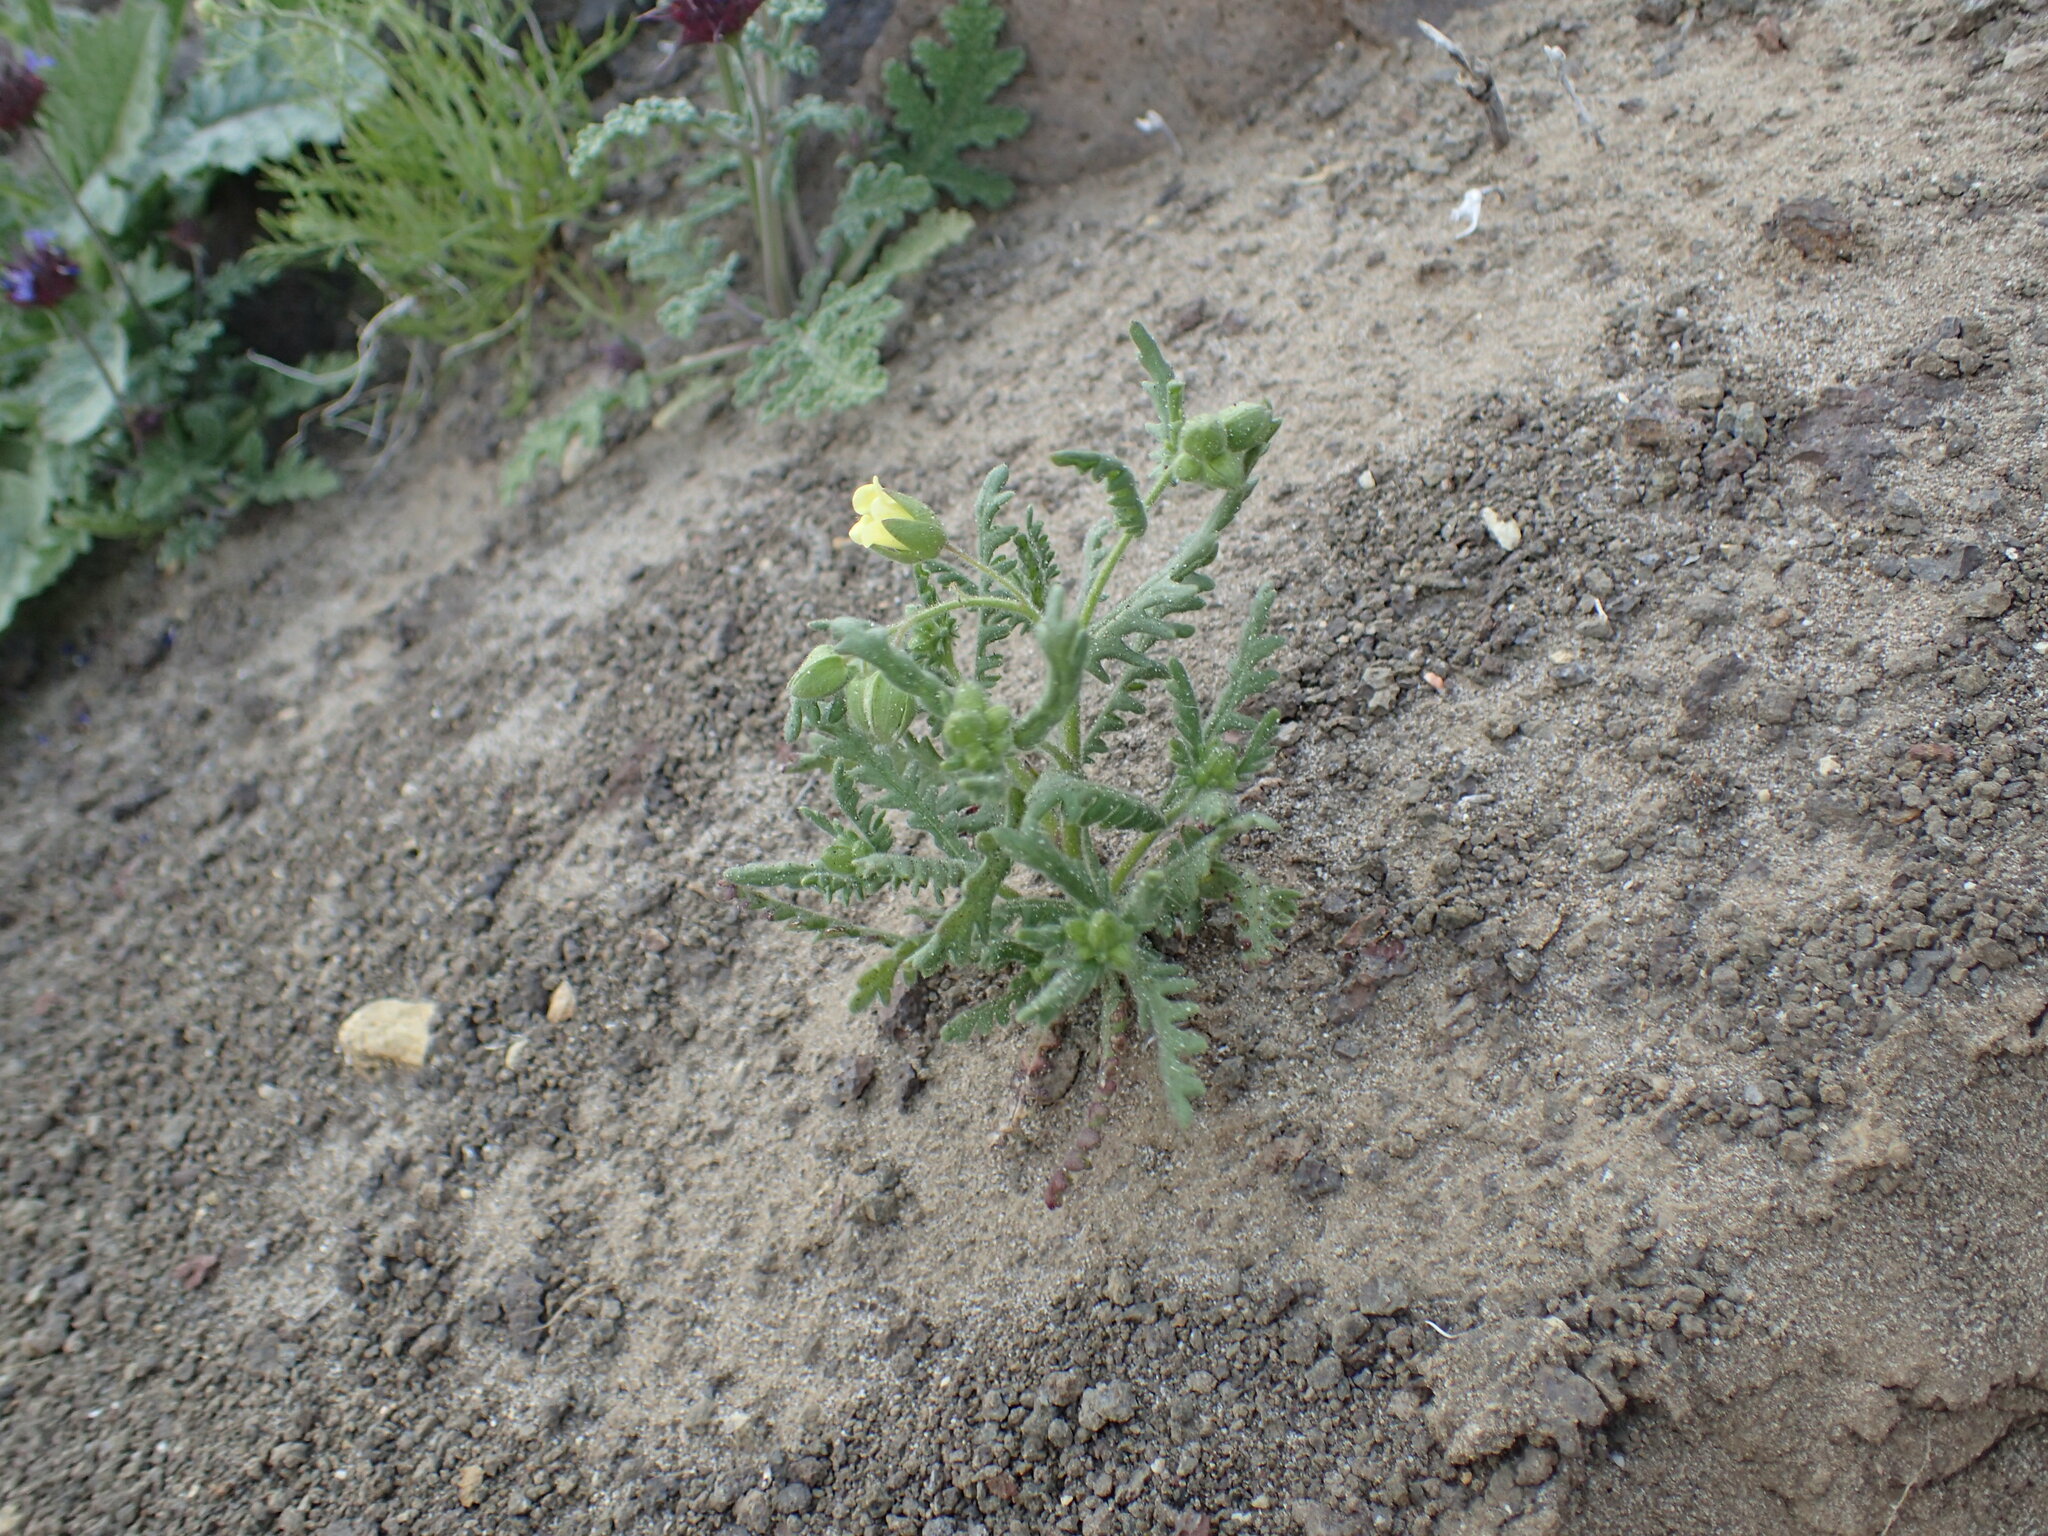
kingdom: Plantae
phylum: Tracheophyta
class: Magnoliopsida
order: Boraginales
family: Hydrophyllaceae
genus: Emmenanthe
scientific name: Emmenanthe penduliflora
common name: Whispering-bells
